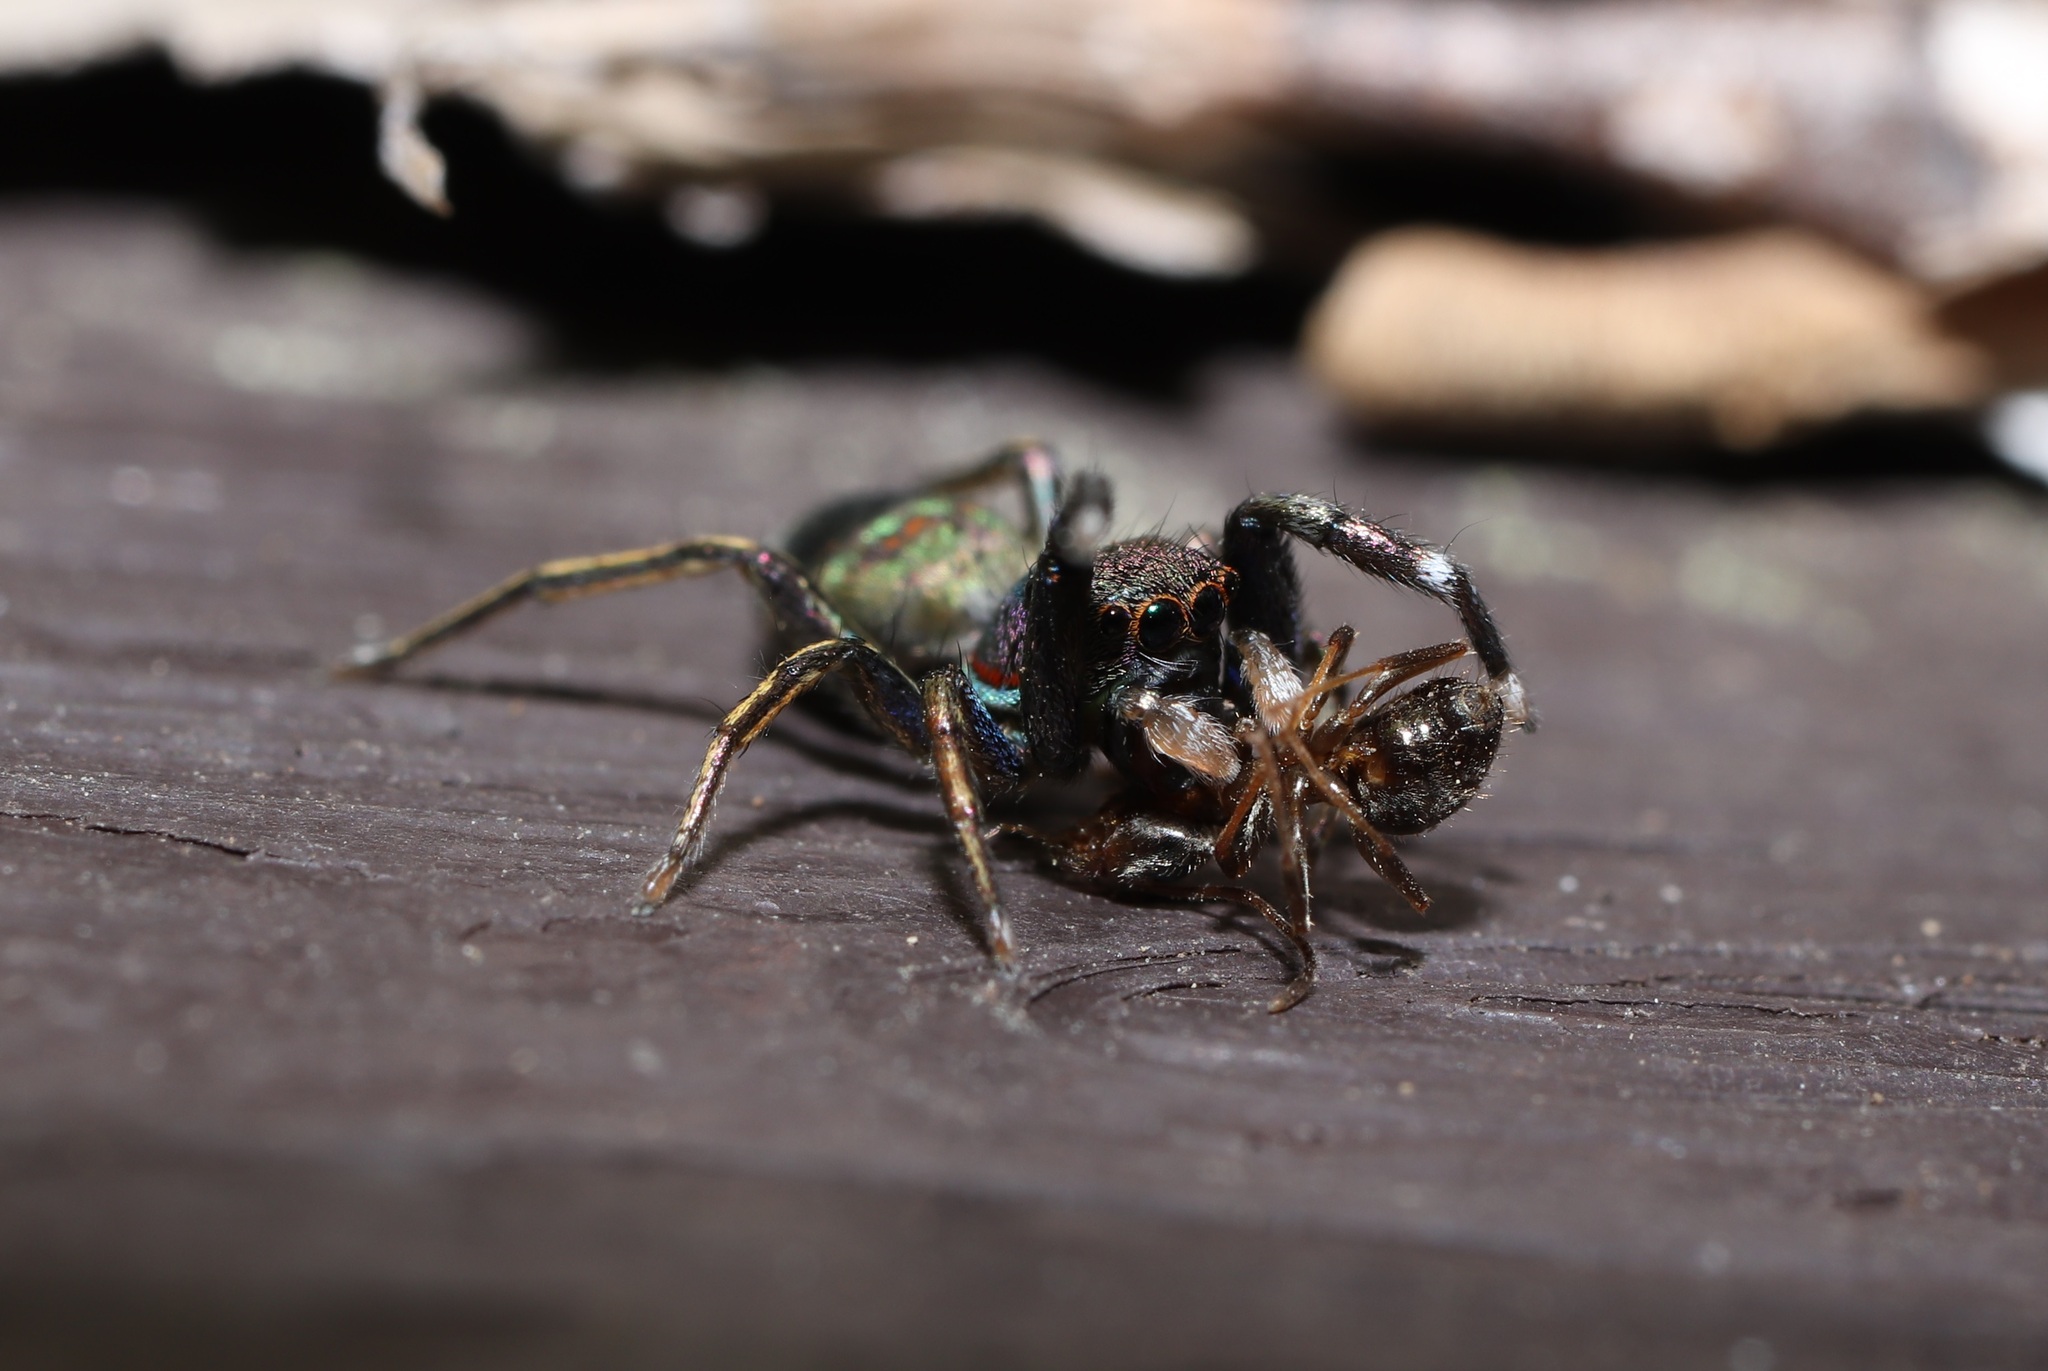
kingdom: Animalia
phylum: Arthropoda
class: Arachnida
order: Araneae
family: Salticidae
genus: Siler
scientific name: Siler cupreus
